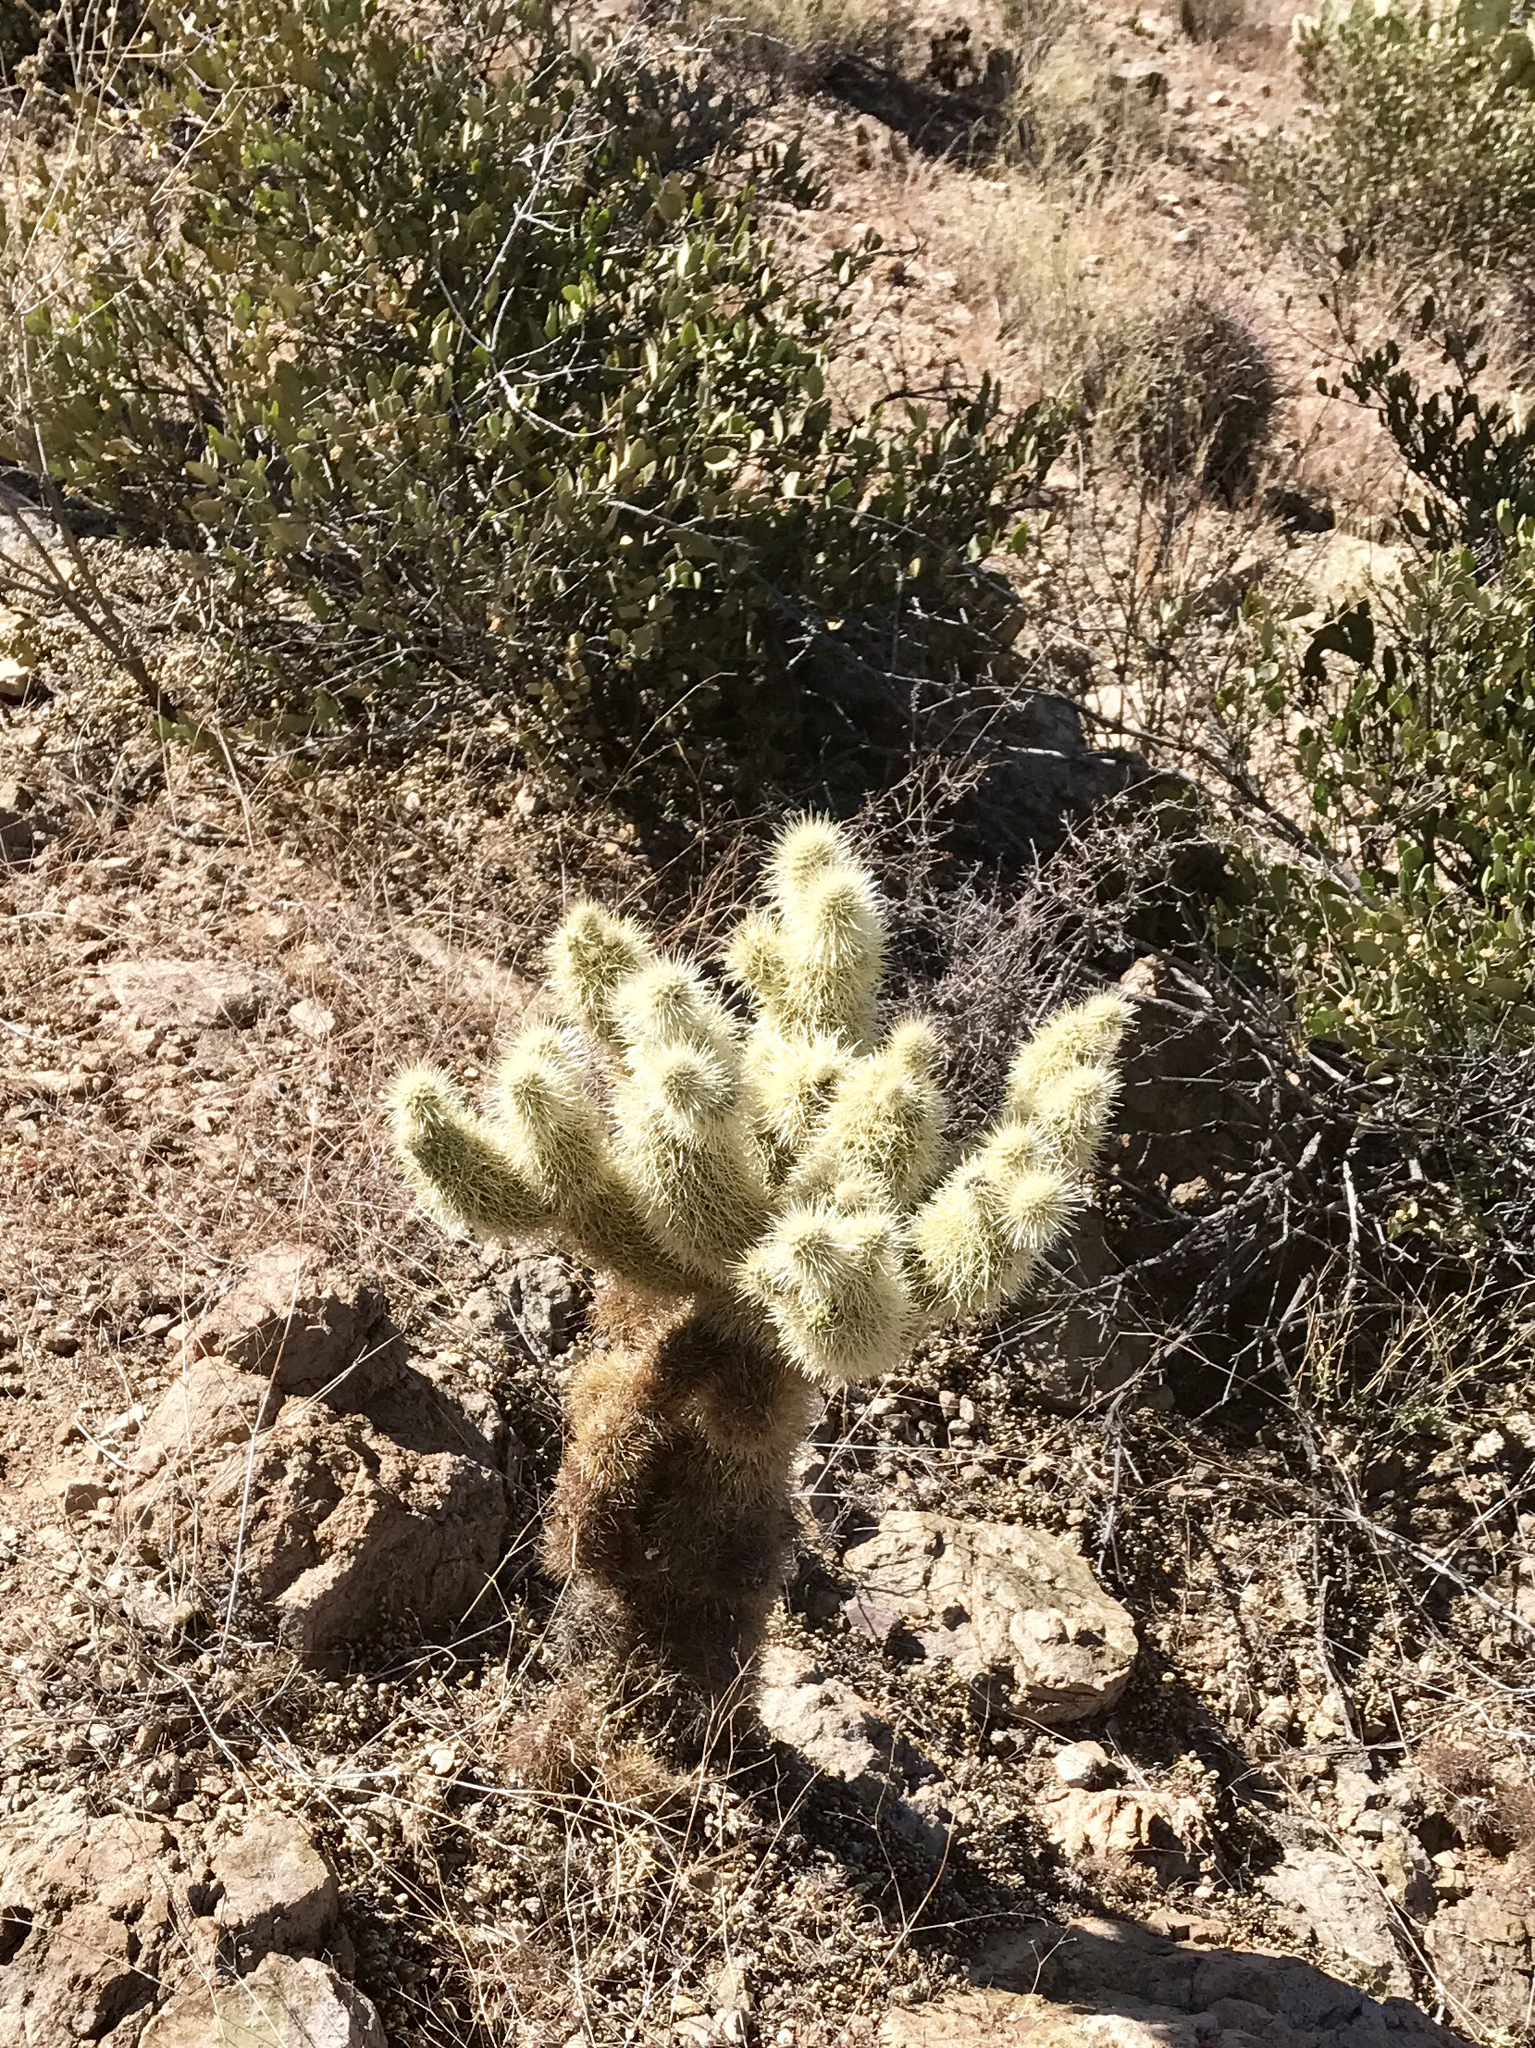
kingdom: Plantae
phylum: Tracheophyta
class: Magnoliopsida
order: Caryophyllales
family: Cactaceae
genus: Cylindropuntia
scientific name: Cylindropuntia fosbergii
